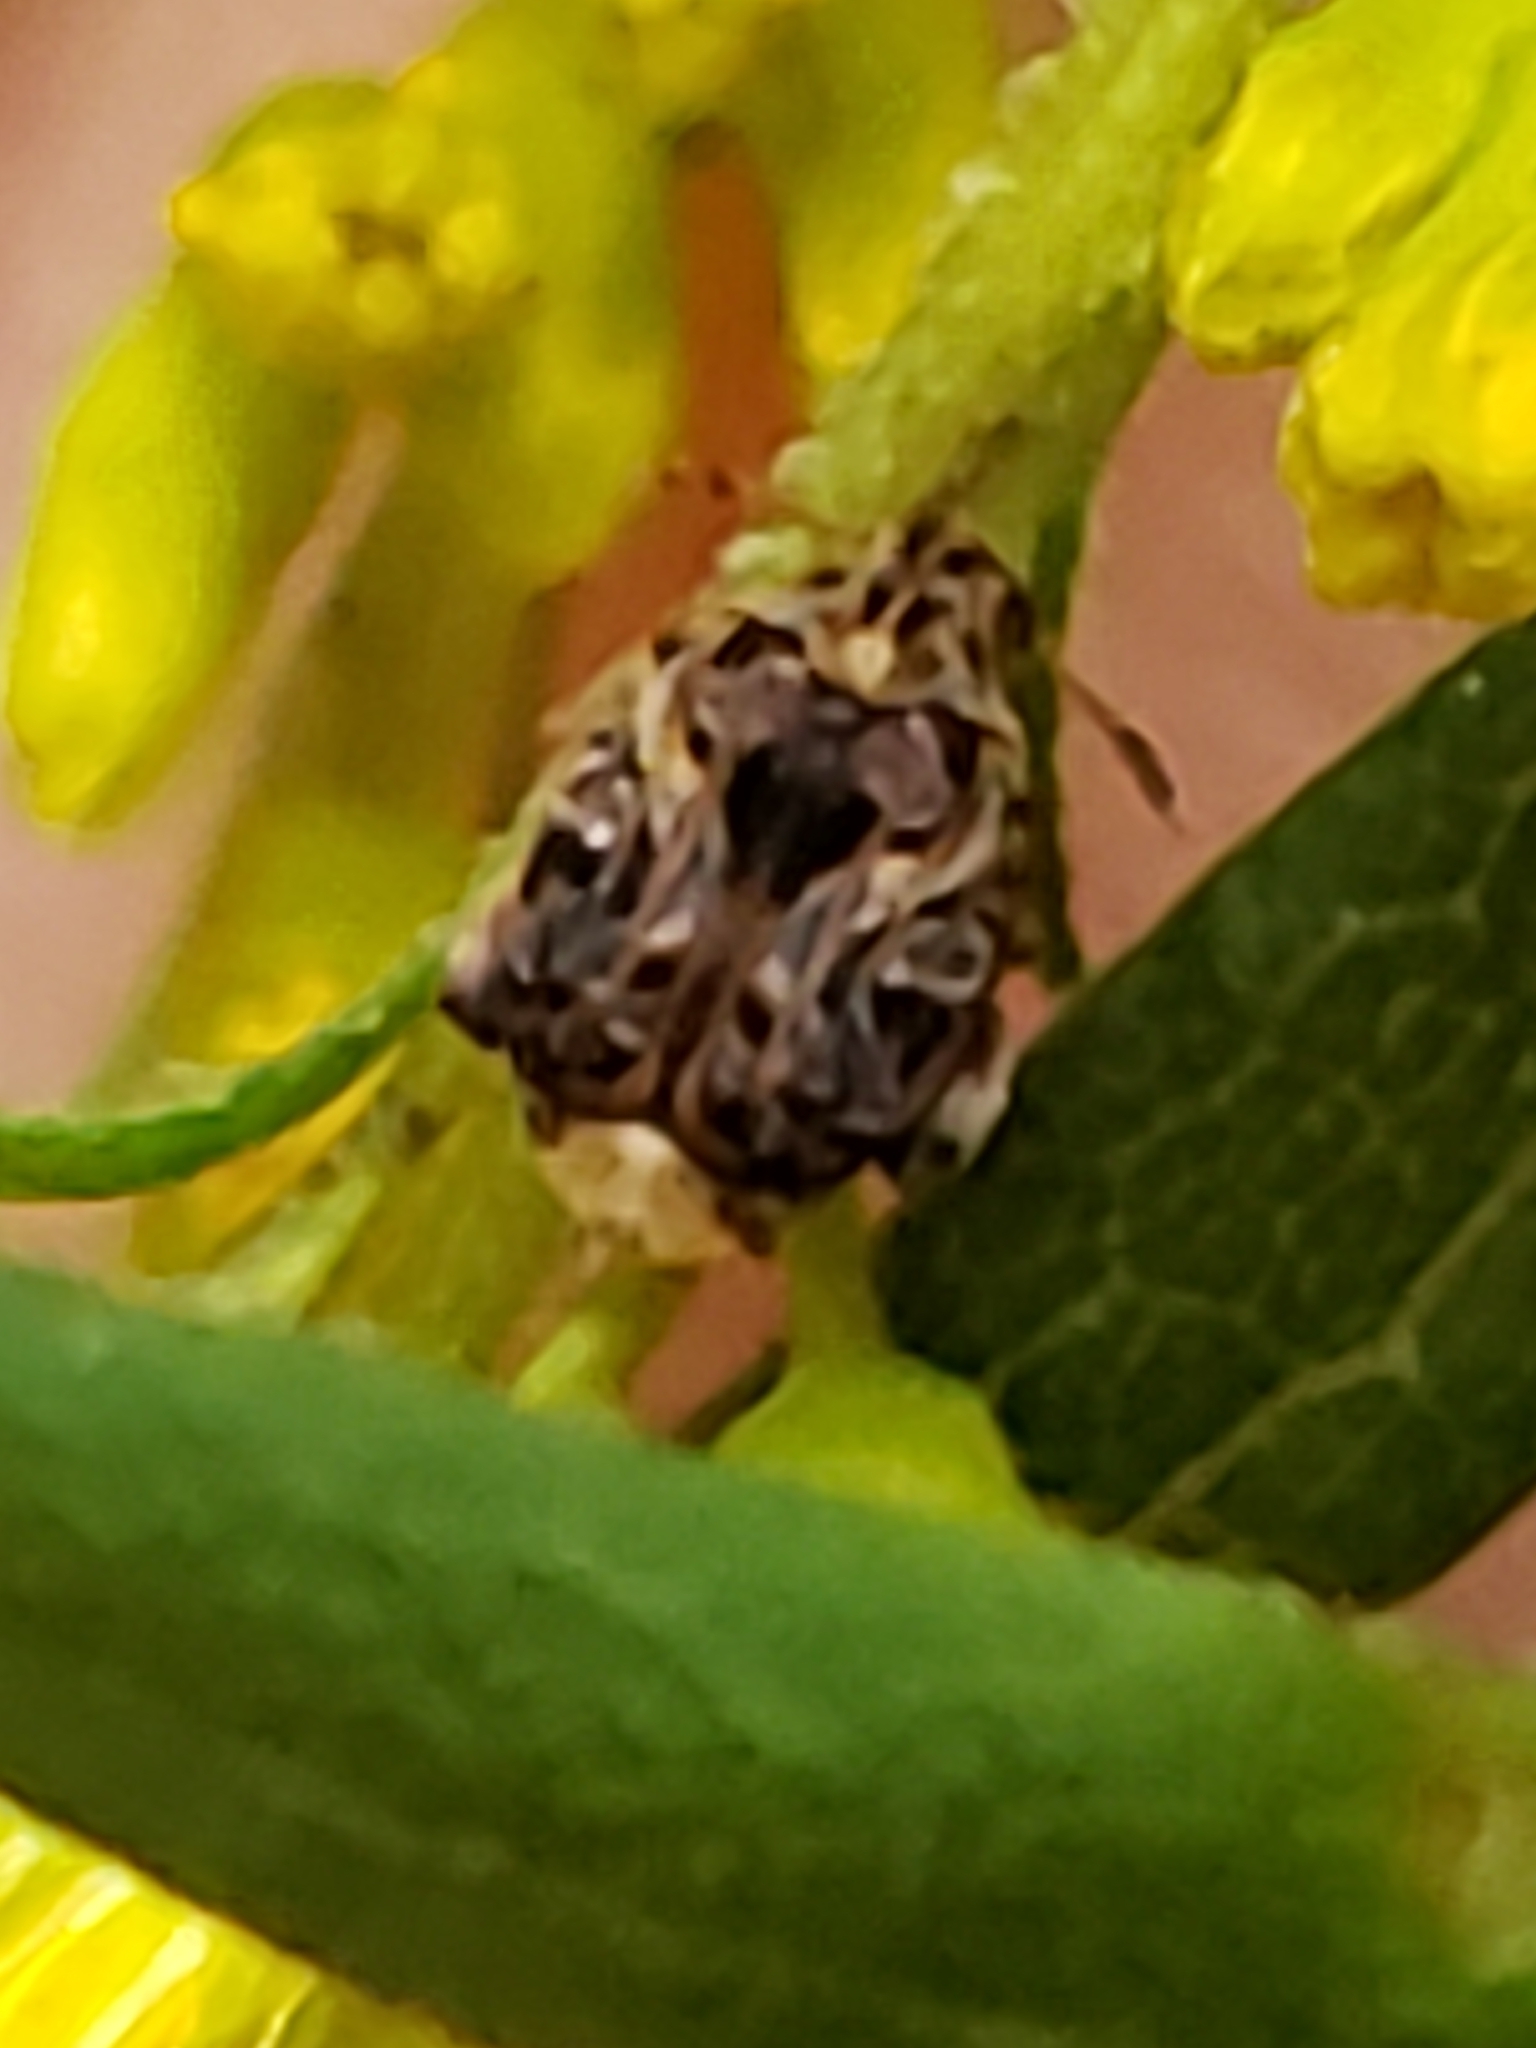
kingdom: Animalia
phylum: Arthropoda
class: Insecta
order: Coleoptera
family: Chrysomelidae
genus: Gibbobruchus
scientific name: Gibbobruchus mimus
